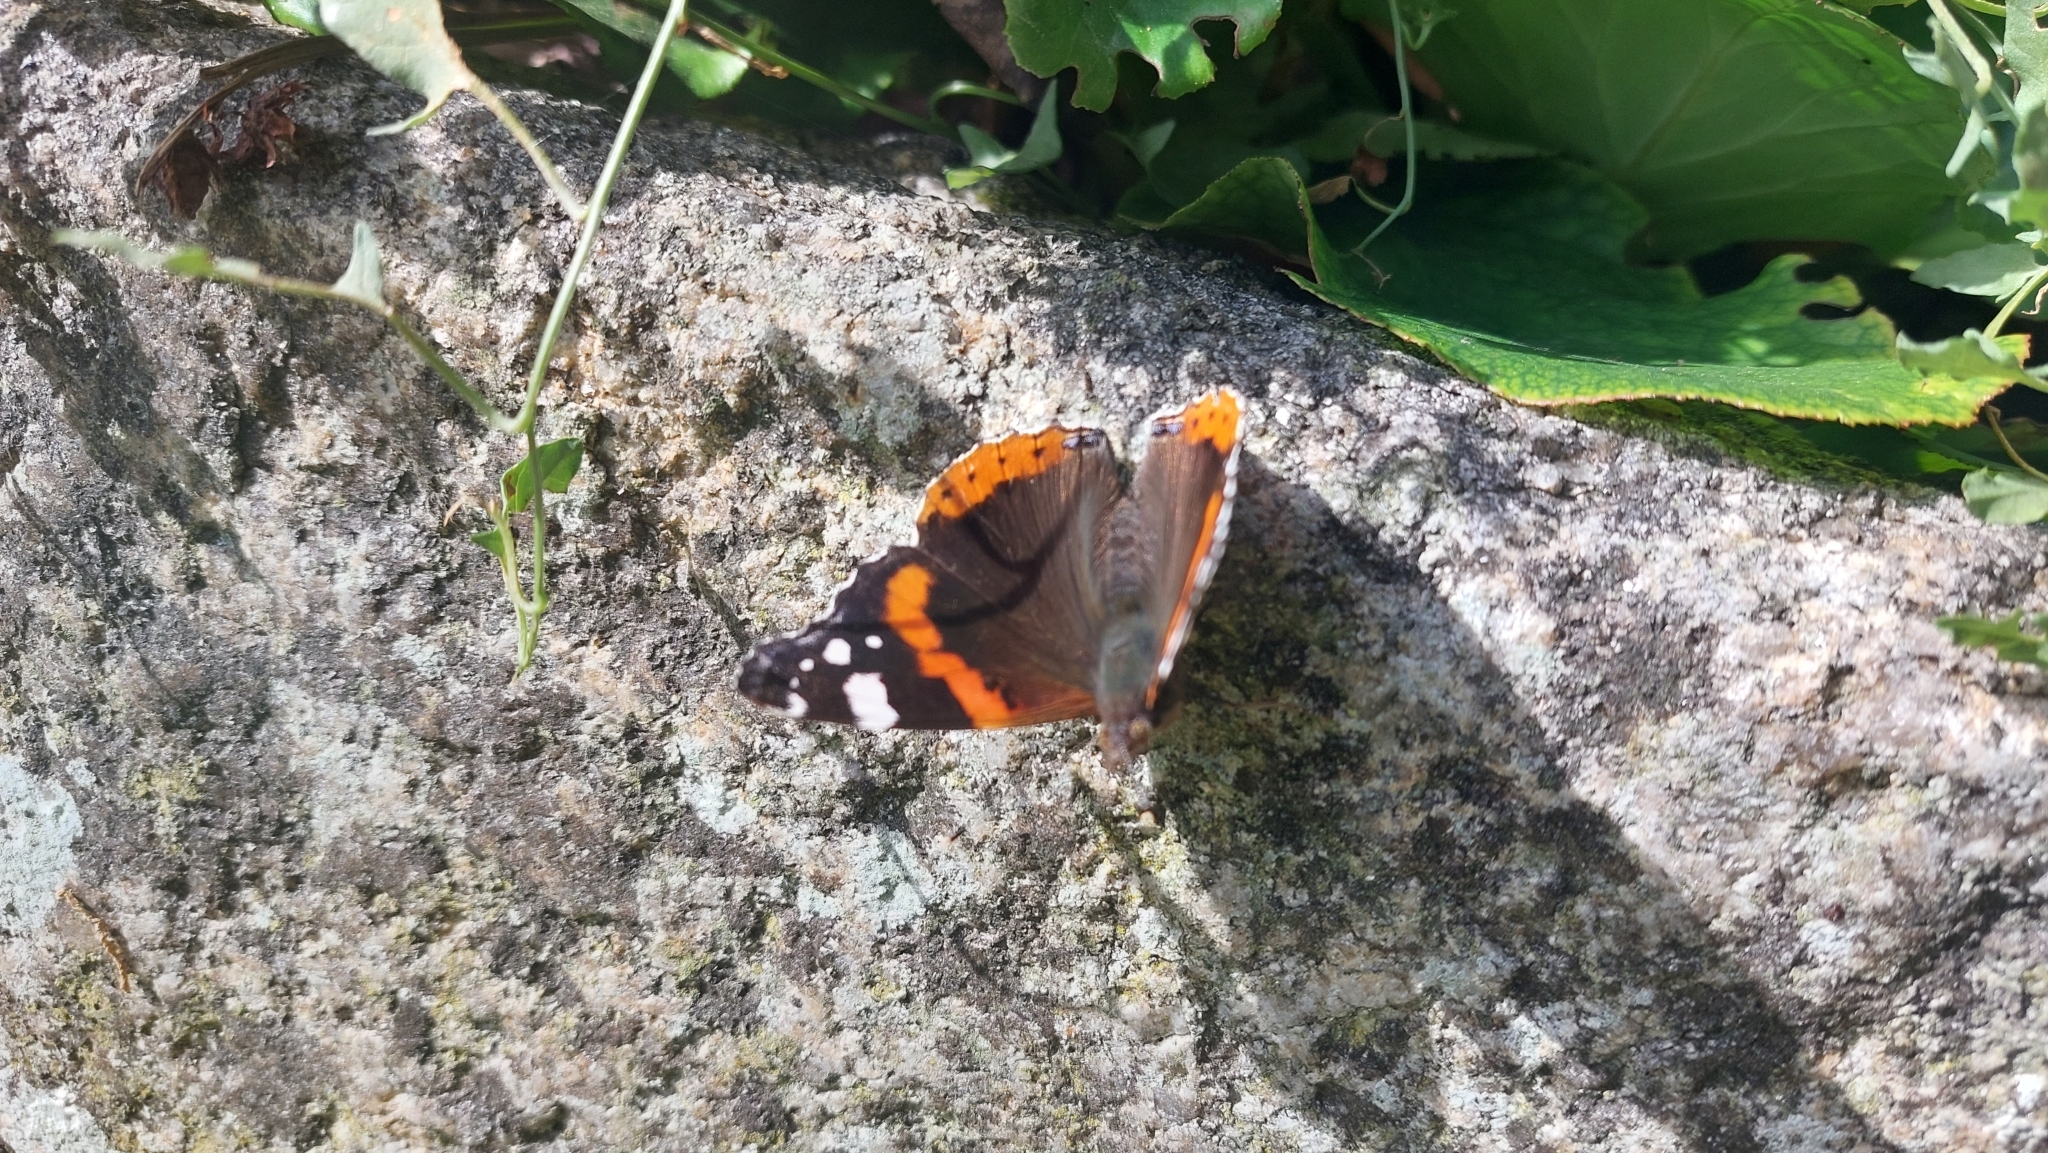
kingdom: Animalia
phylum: Arthropoda
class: Insecta
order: Lepidoptera
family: Nymphalidae
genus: Vanessa
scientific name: Vanessa atalanta
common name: Red admiral
